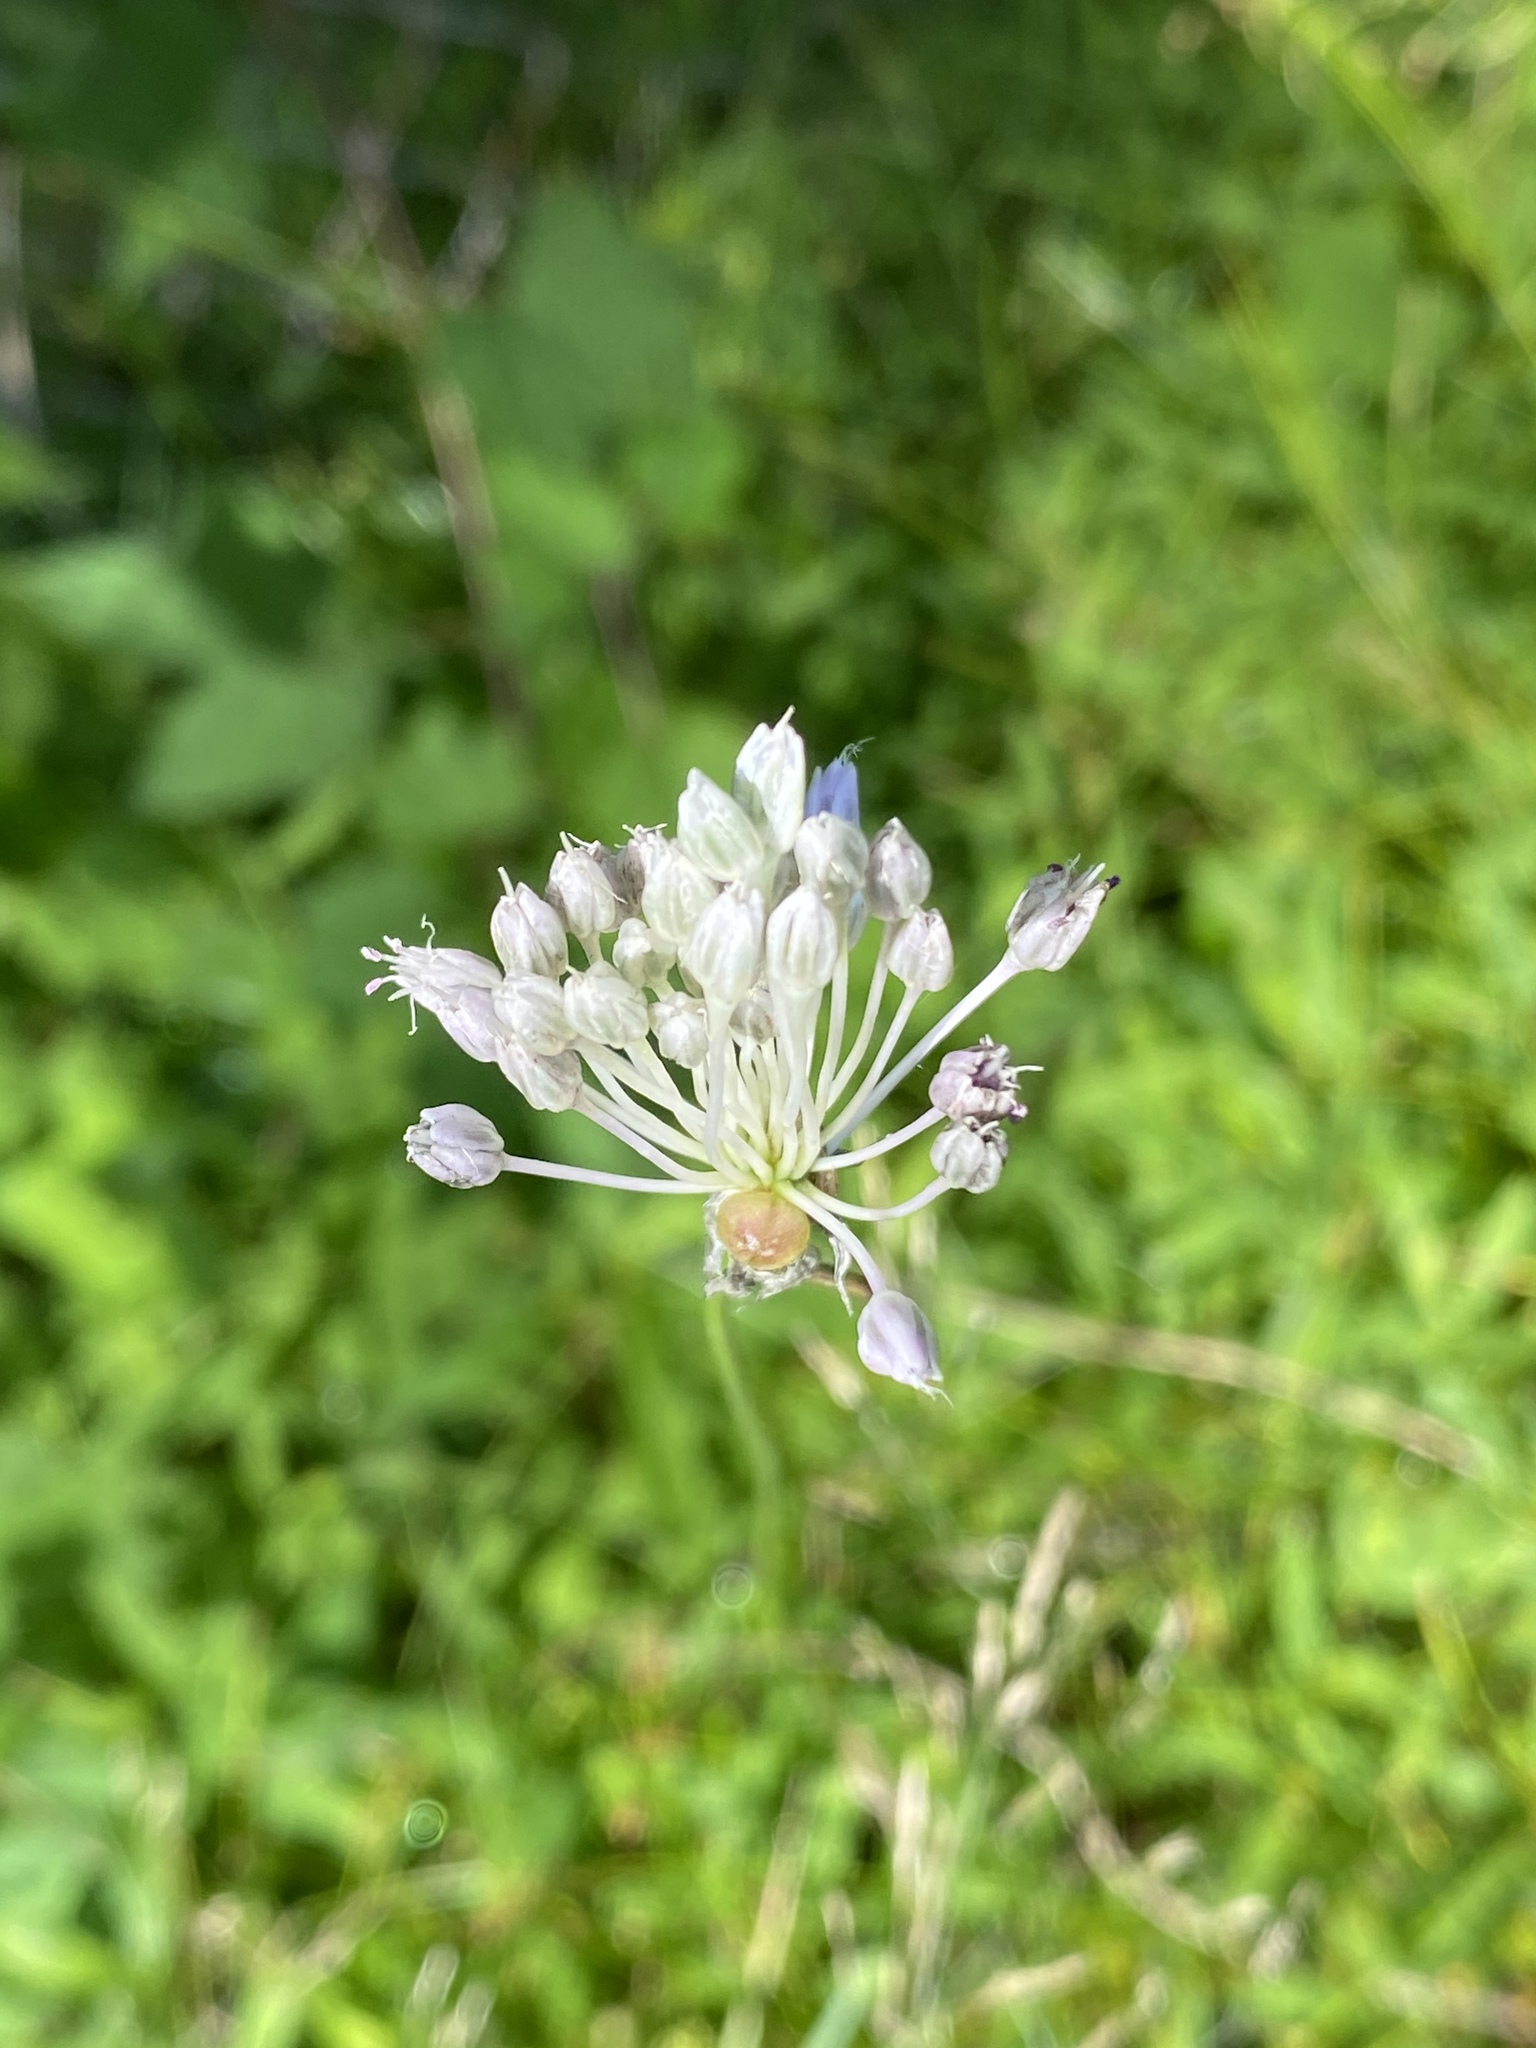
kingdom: Plantae
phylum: Tracheophyta
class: Liliopsida
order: Asparagales
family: Amaryllidaceae
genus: Allium
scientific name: Allium vineale
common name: Crow garlic
